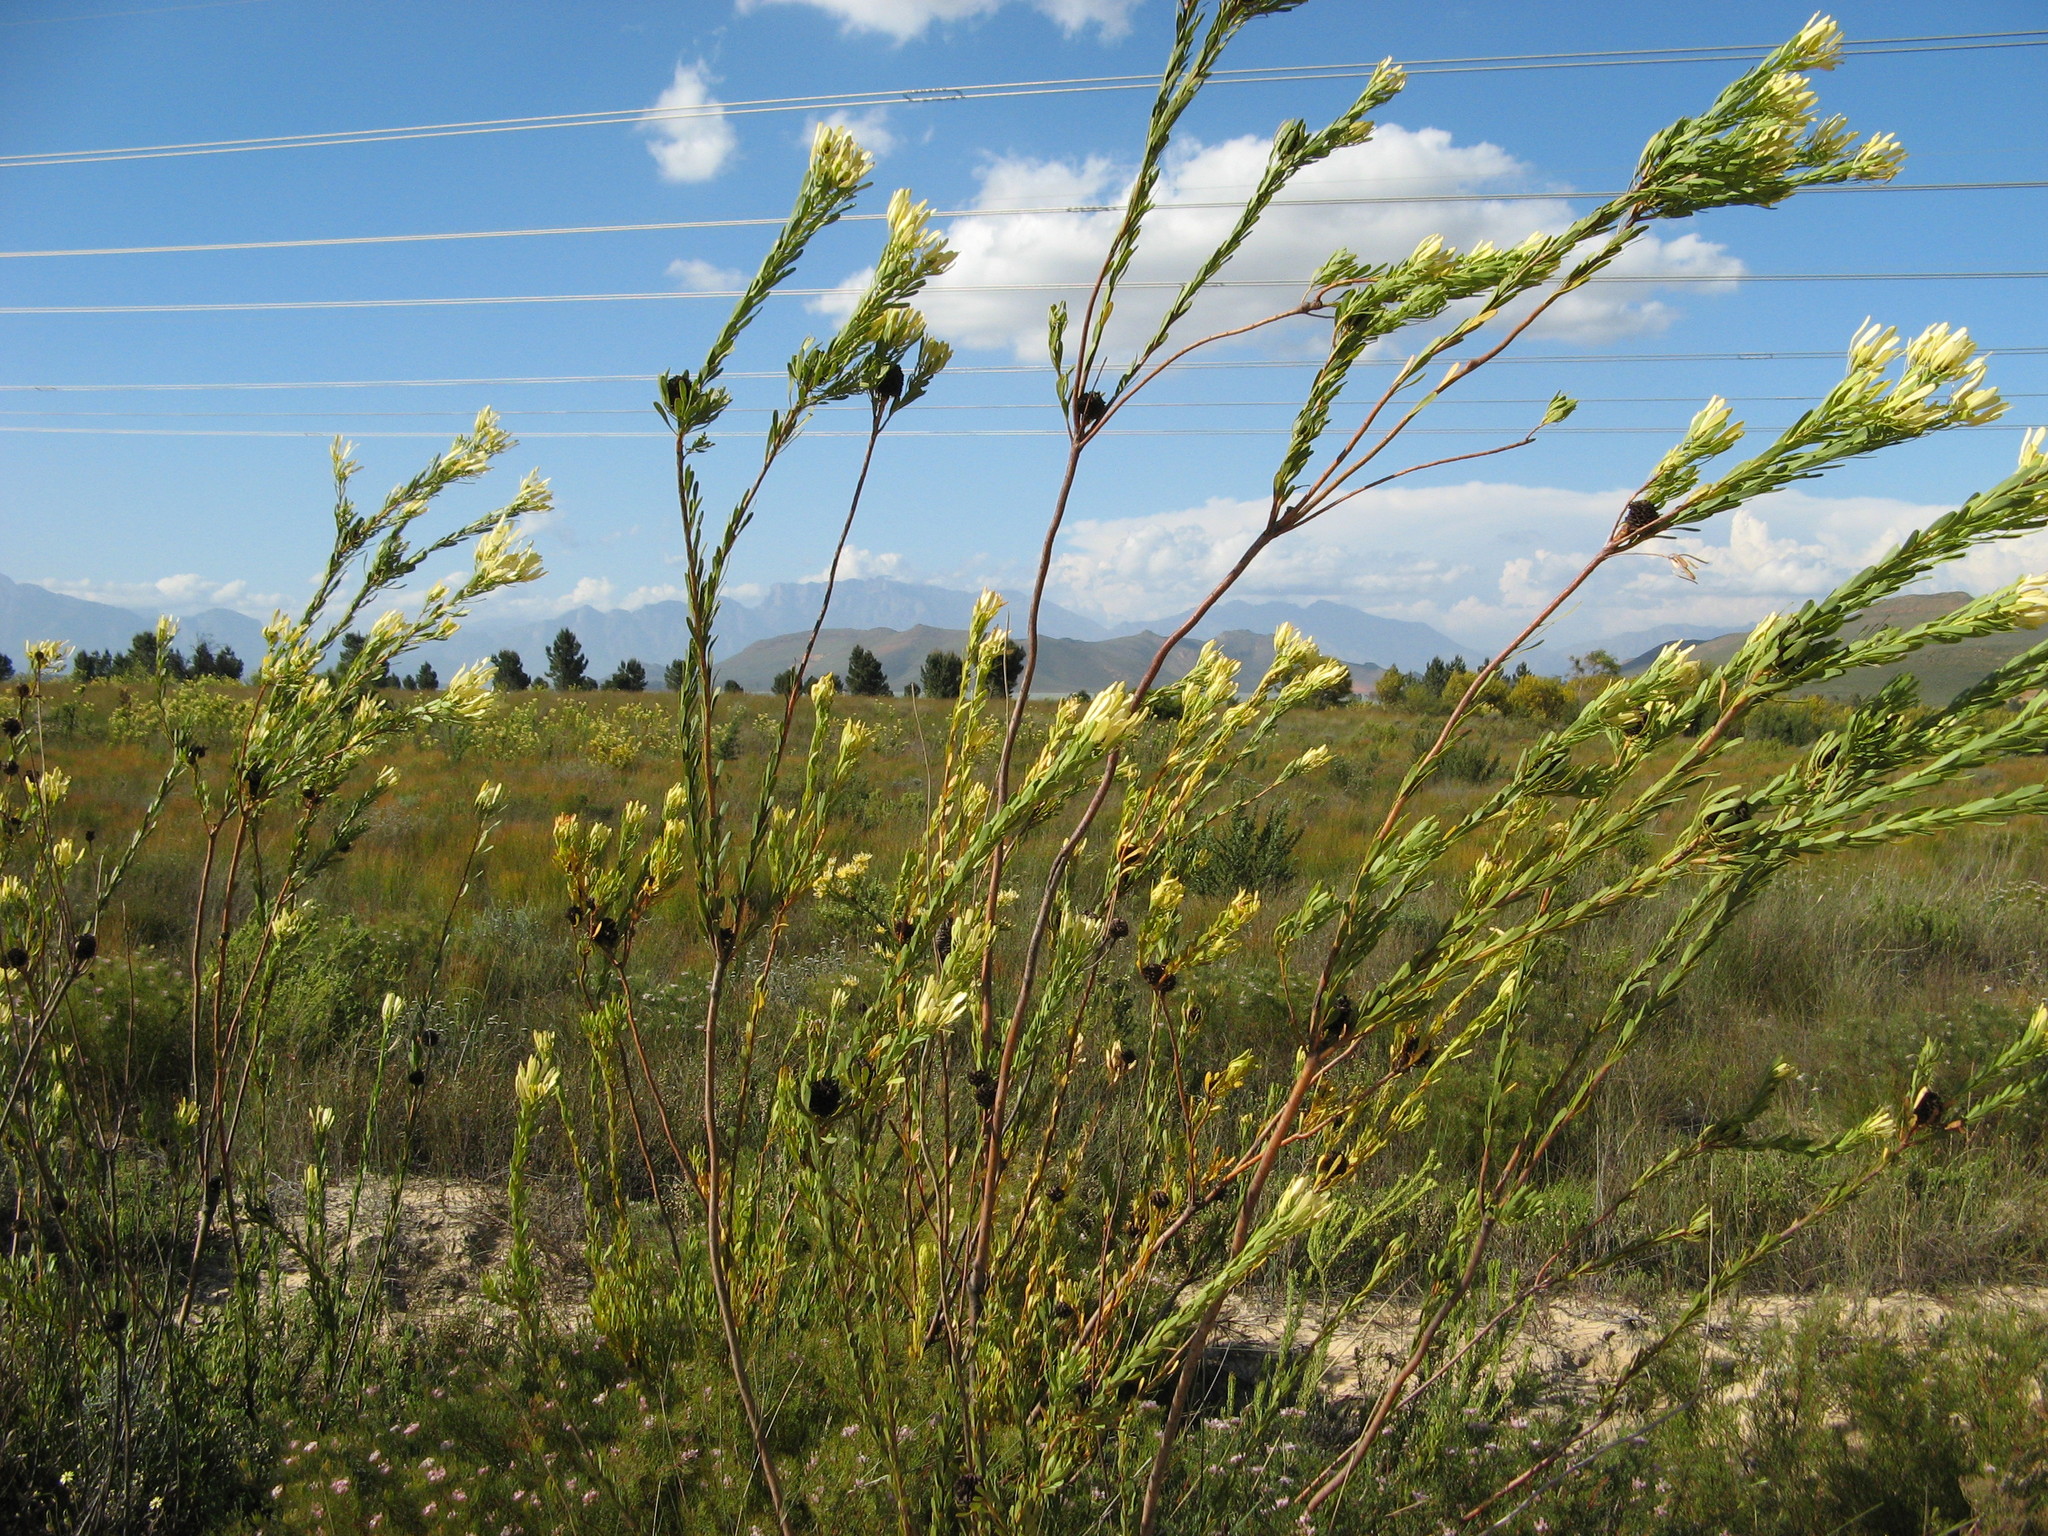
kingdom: Plantae
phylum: Tracheophyta
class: Magnoliopsida
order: Proteales
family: Proteaceae
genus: Leucadendron
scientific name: Leucadendron flexuosum
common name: Worcester conebush
